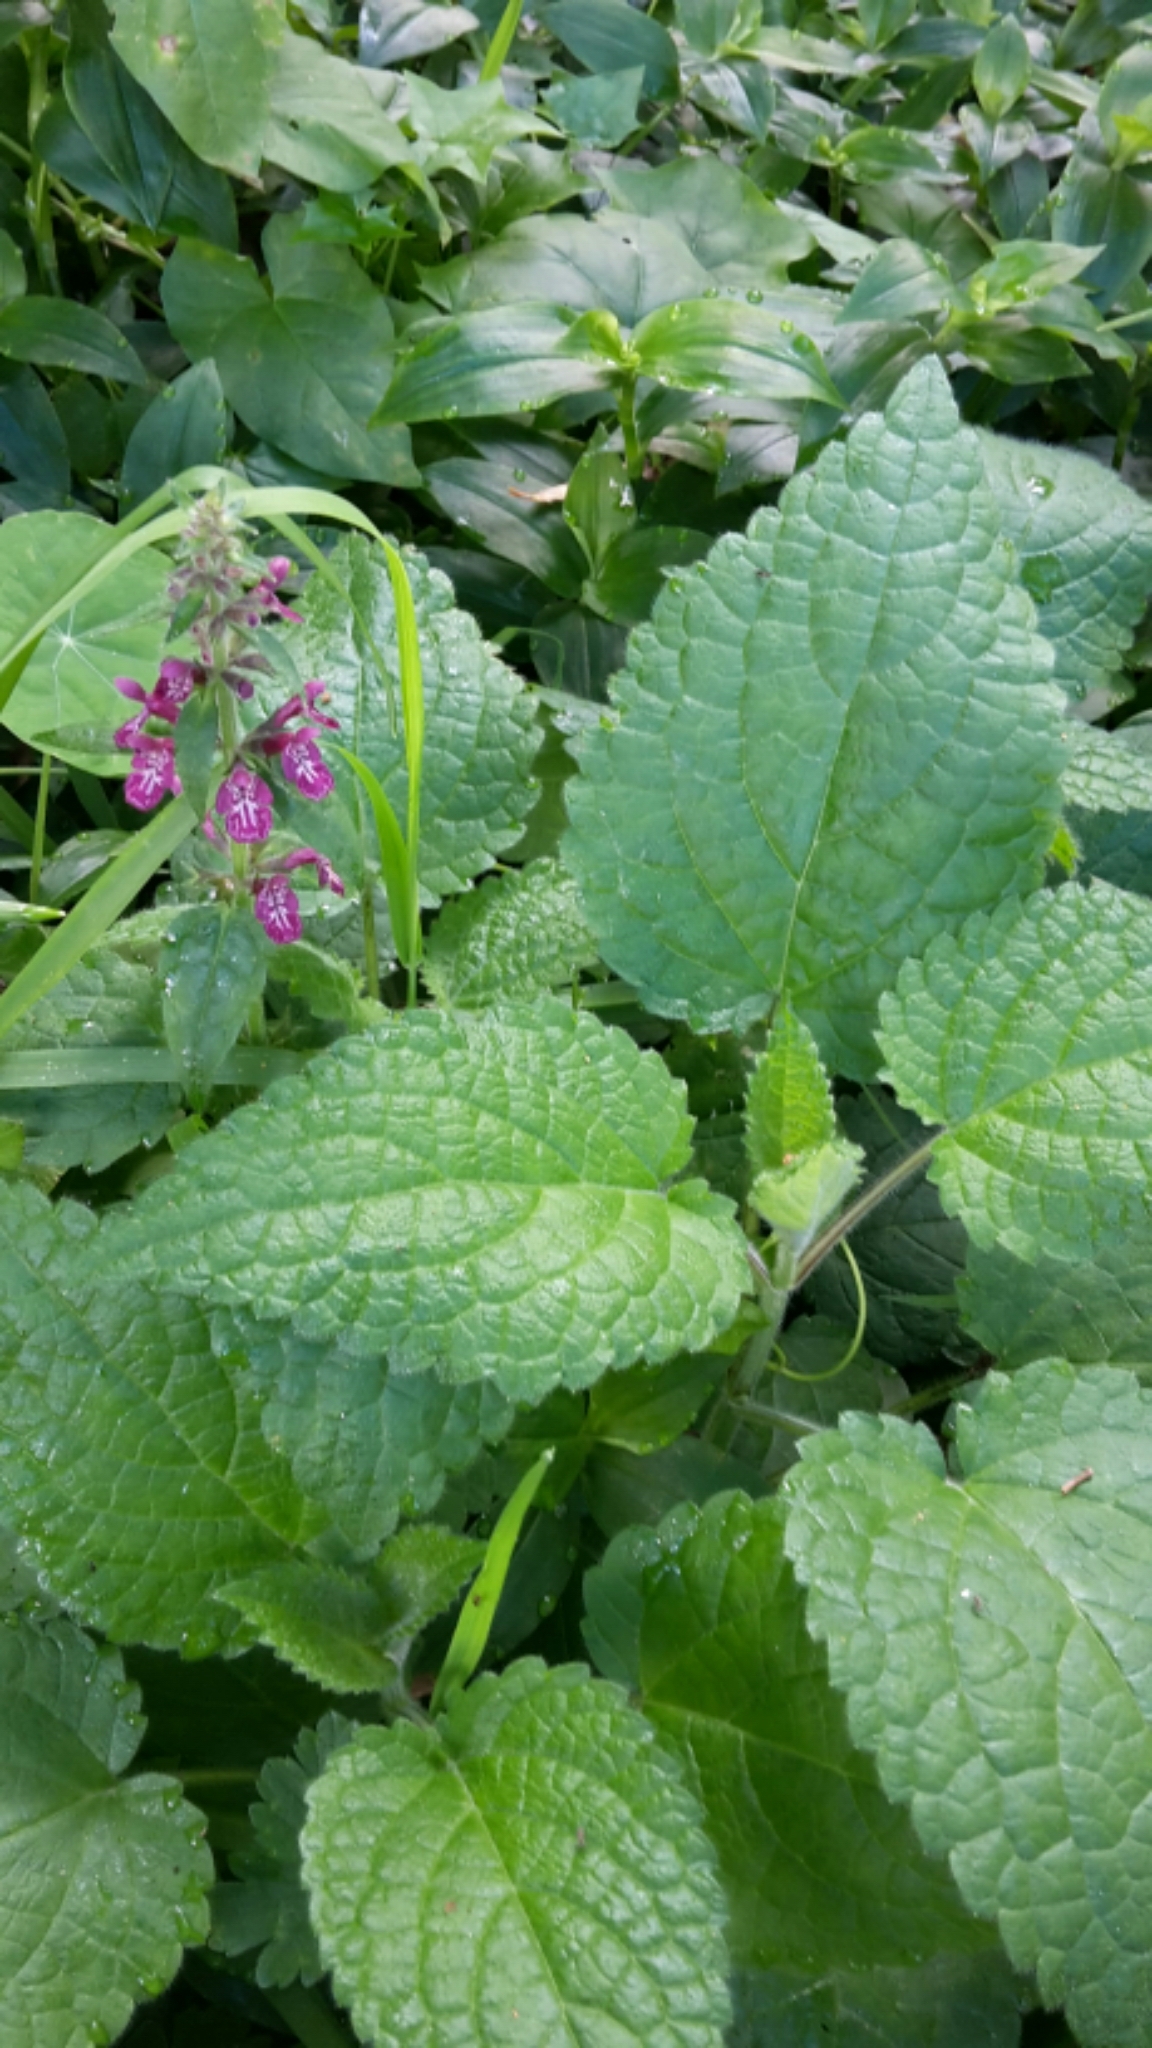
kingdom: Plantae
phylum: Tracheophyta
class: Magnoliopsida
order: Lamiales
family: Lamiaceae
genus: Stachys
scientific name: Stachys sylvatica
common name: Hedge woundwort
